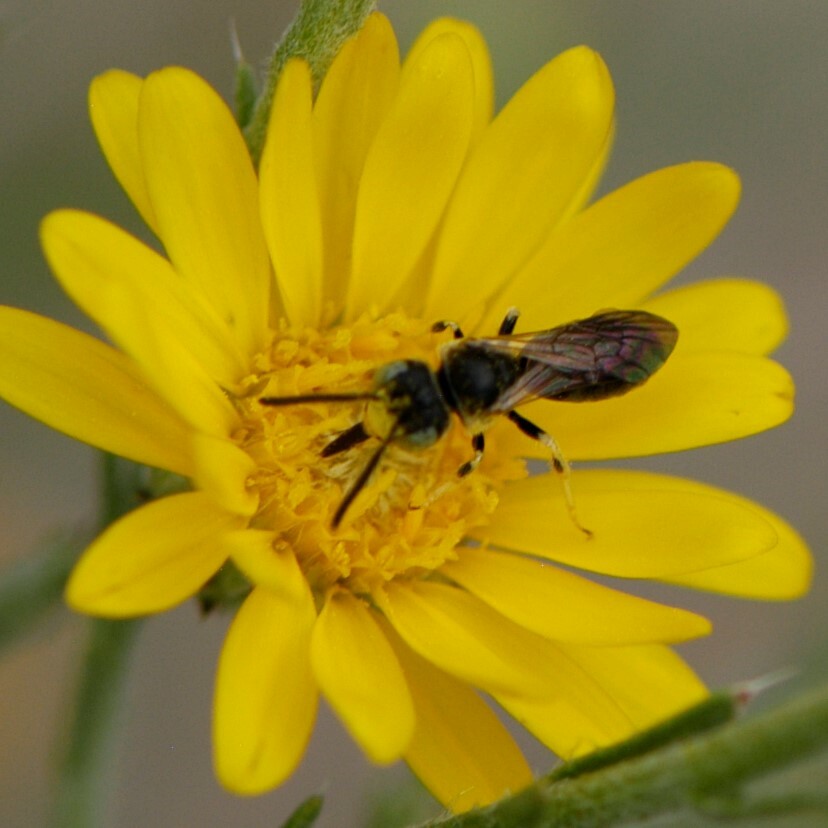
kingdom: Animalia
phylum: Arthropoda
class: Insecta
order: Hymenoptera
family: Andrenidae
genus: Pterosarus
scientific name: Pterosarus
